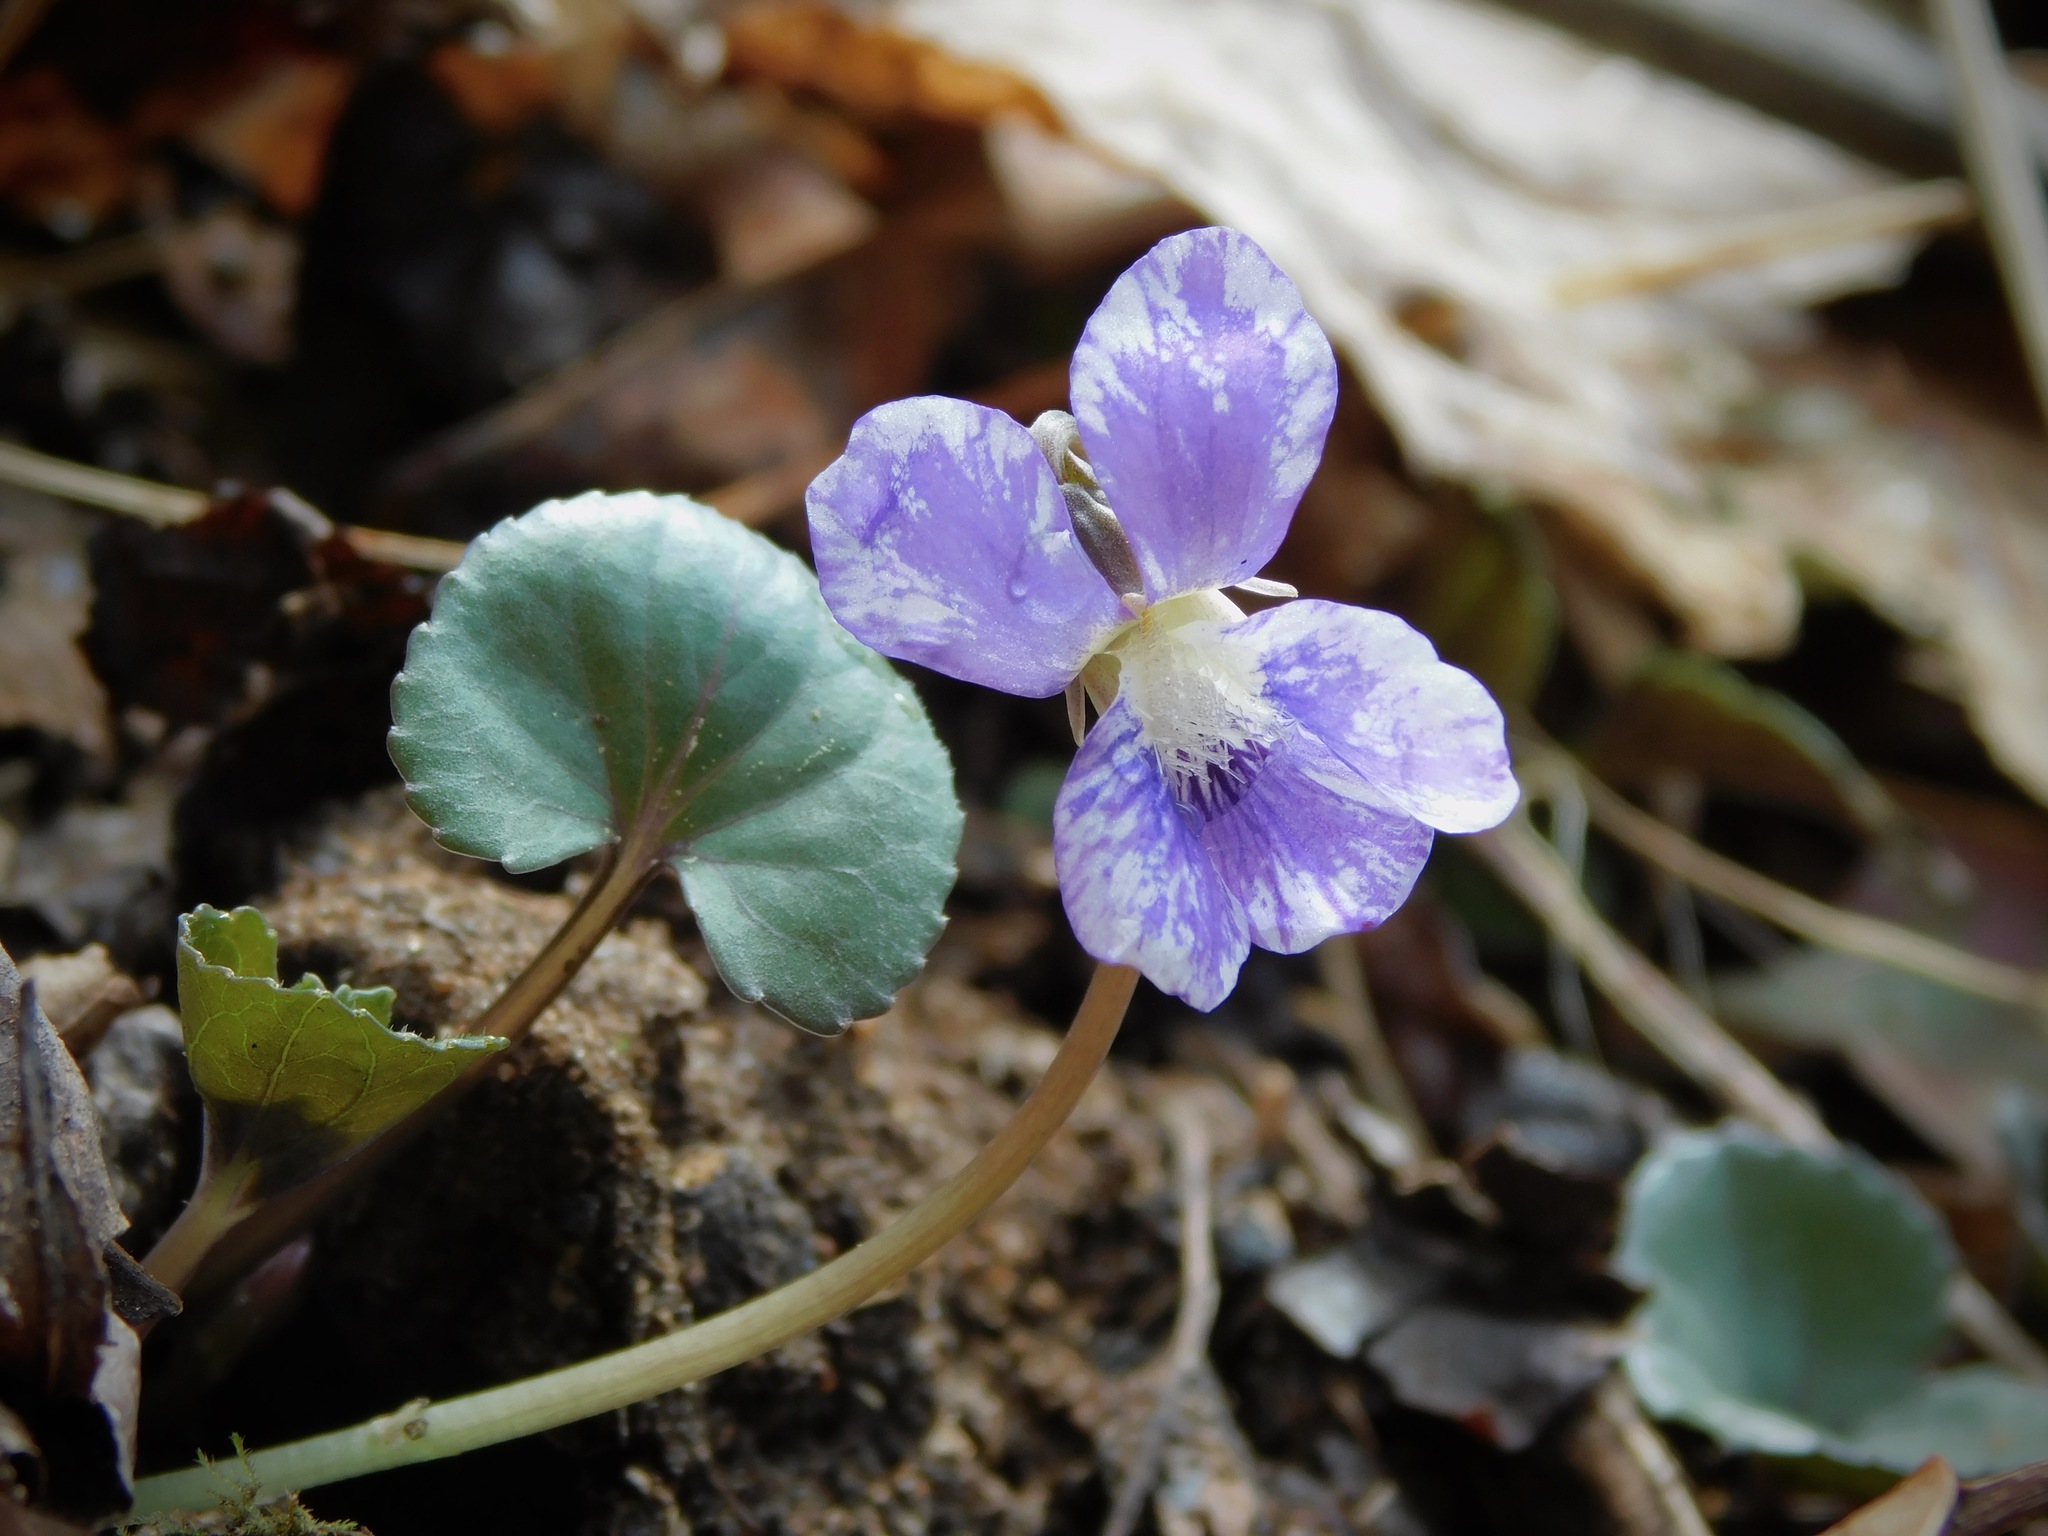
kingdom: Plantae
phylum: Tracheophyta
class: Magnoliopsida
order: Malpighiales
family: Violaceae
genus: Viola
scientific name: Viola hirsutula
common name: Southern wood violet
